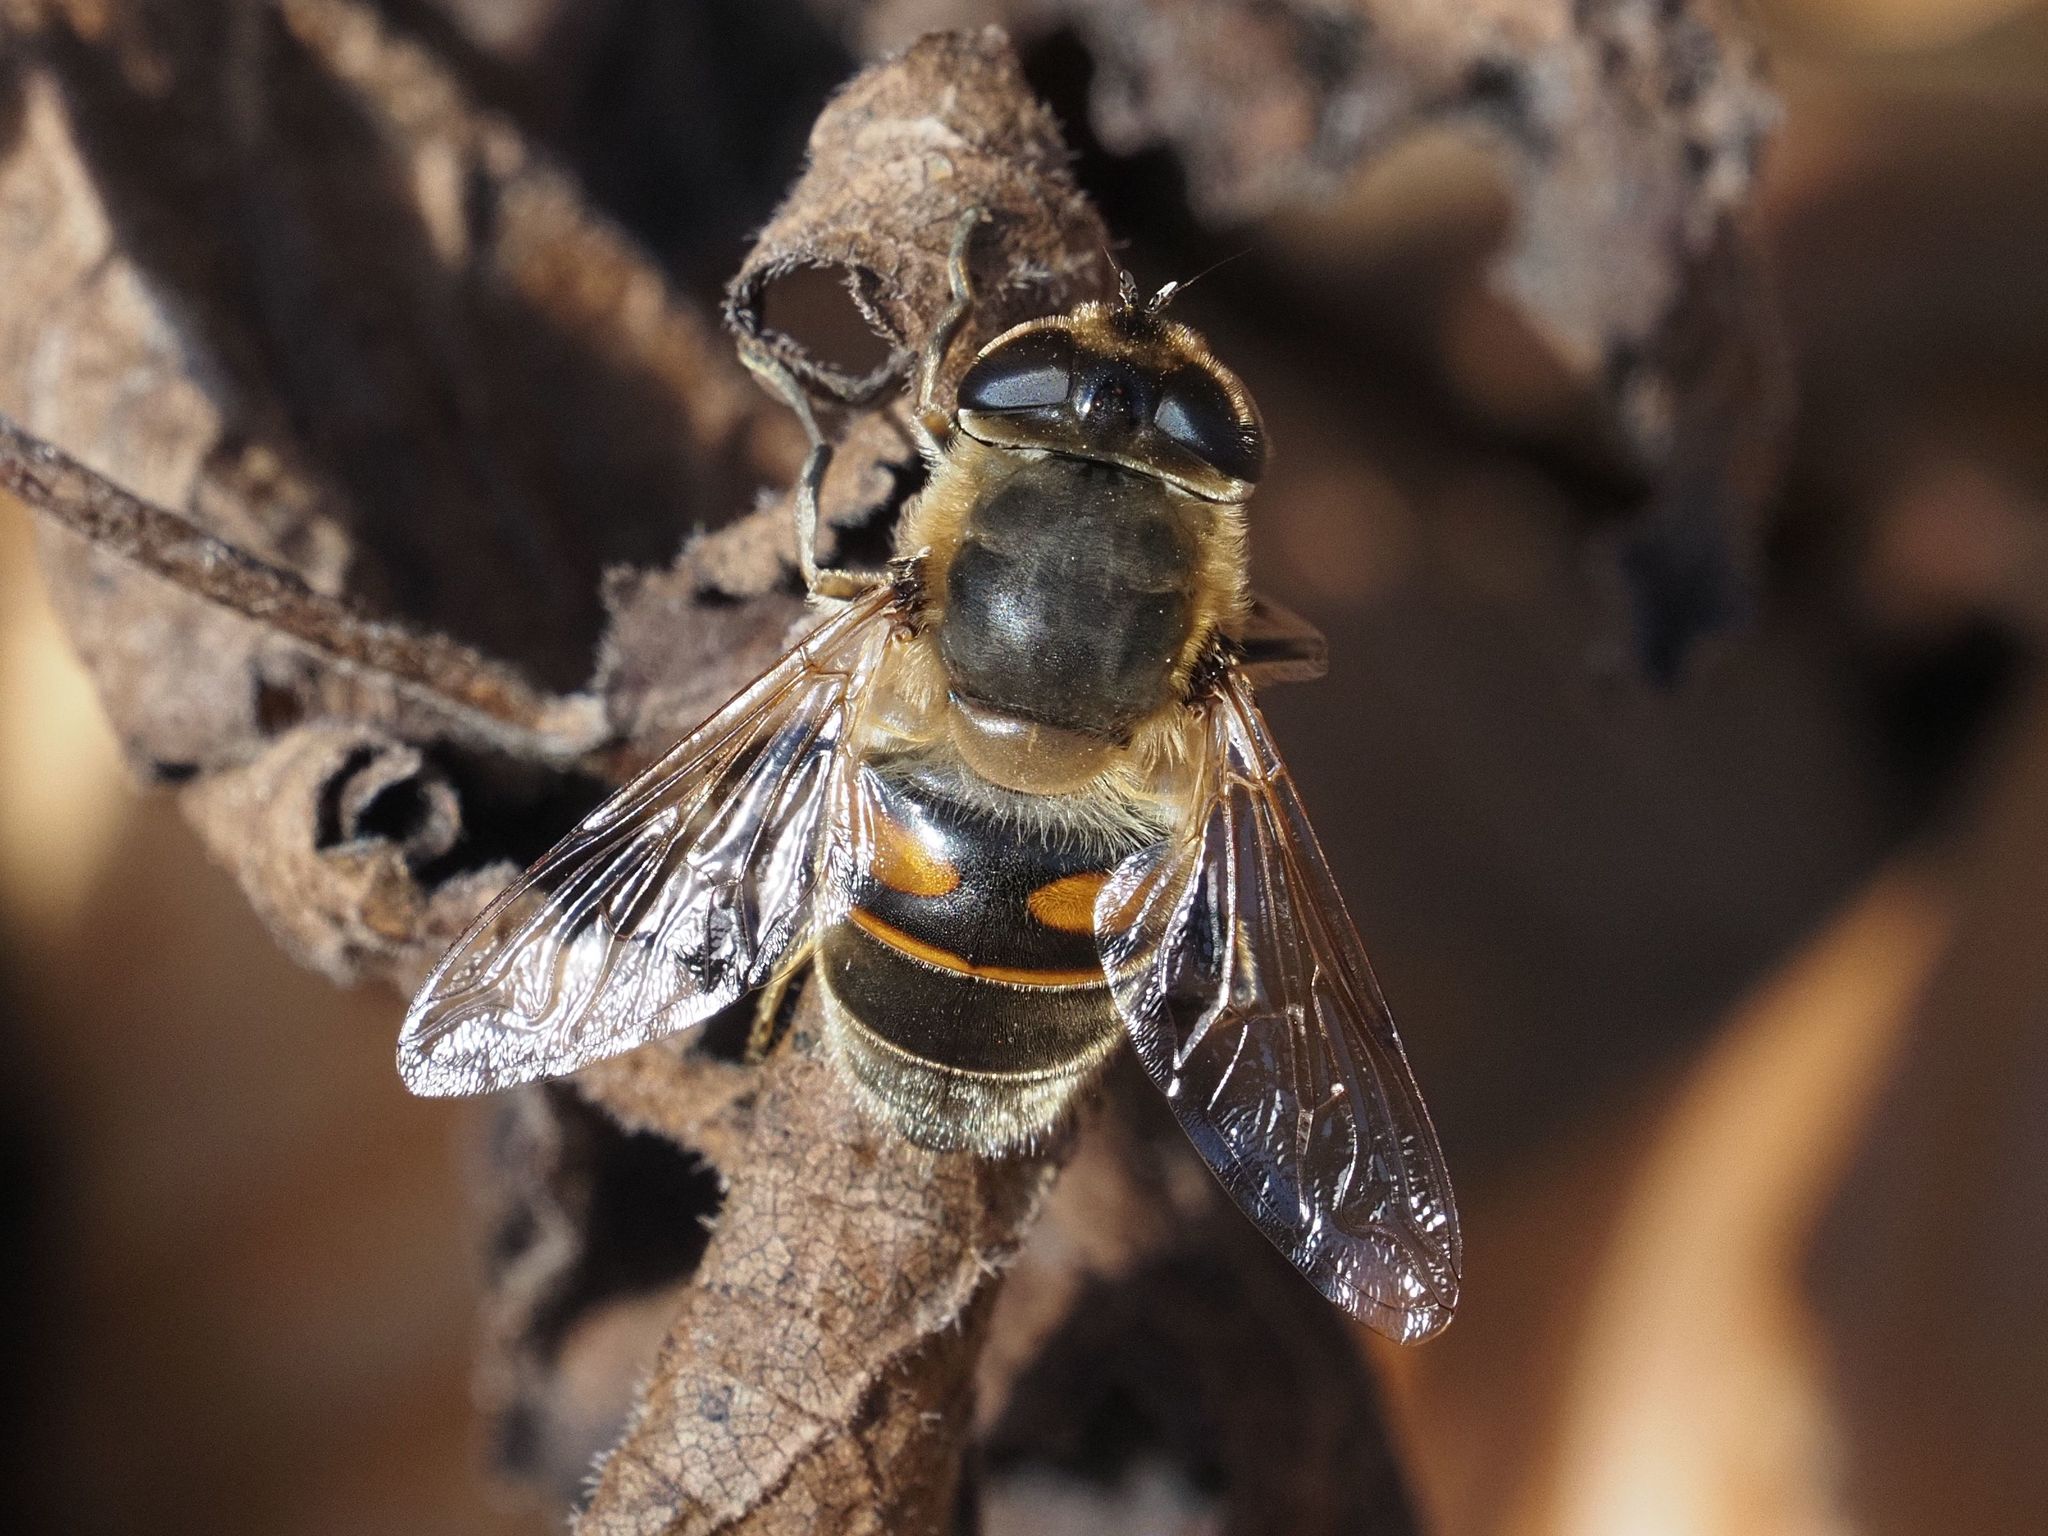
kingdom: Animalia
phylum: Arthropoda
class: Insecta
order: Diptera
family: Syrphidae
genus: Eristalis
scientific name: Eristalis tenax
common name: Drone fly
